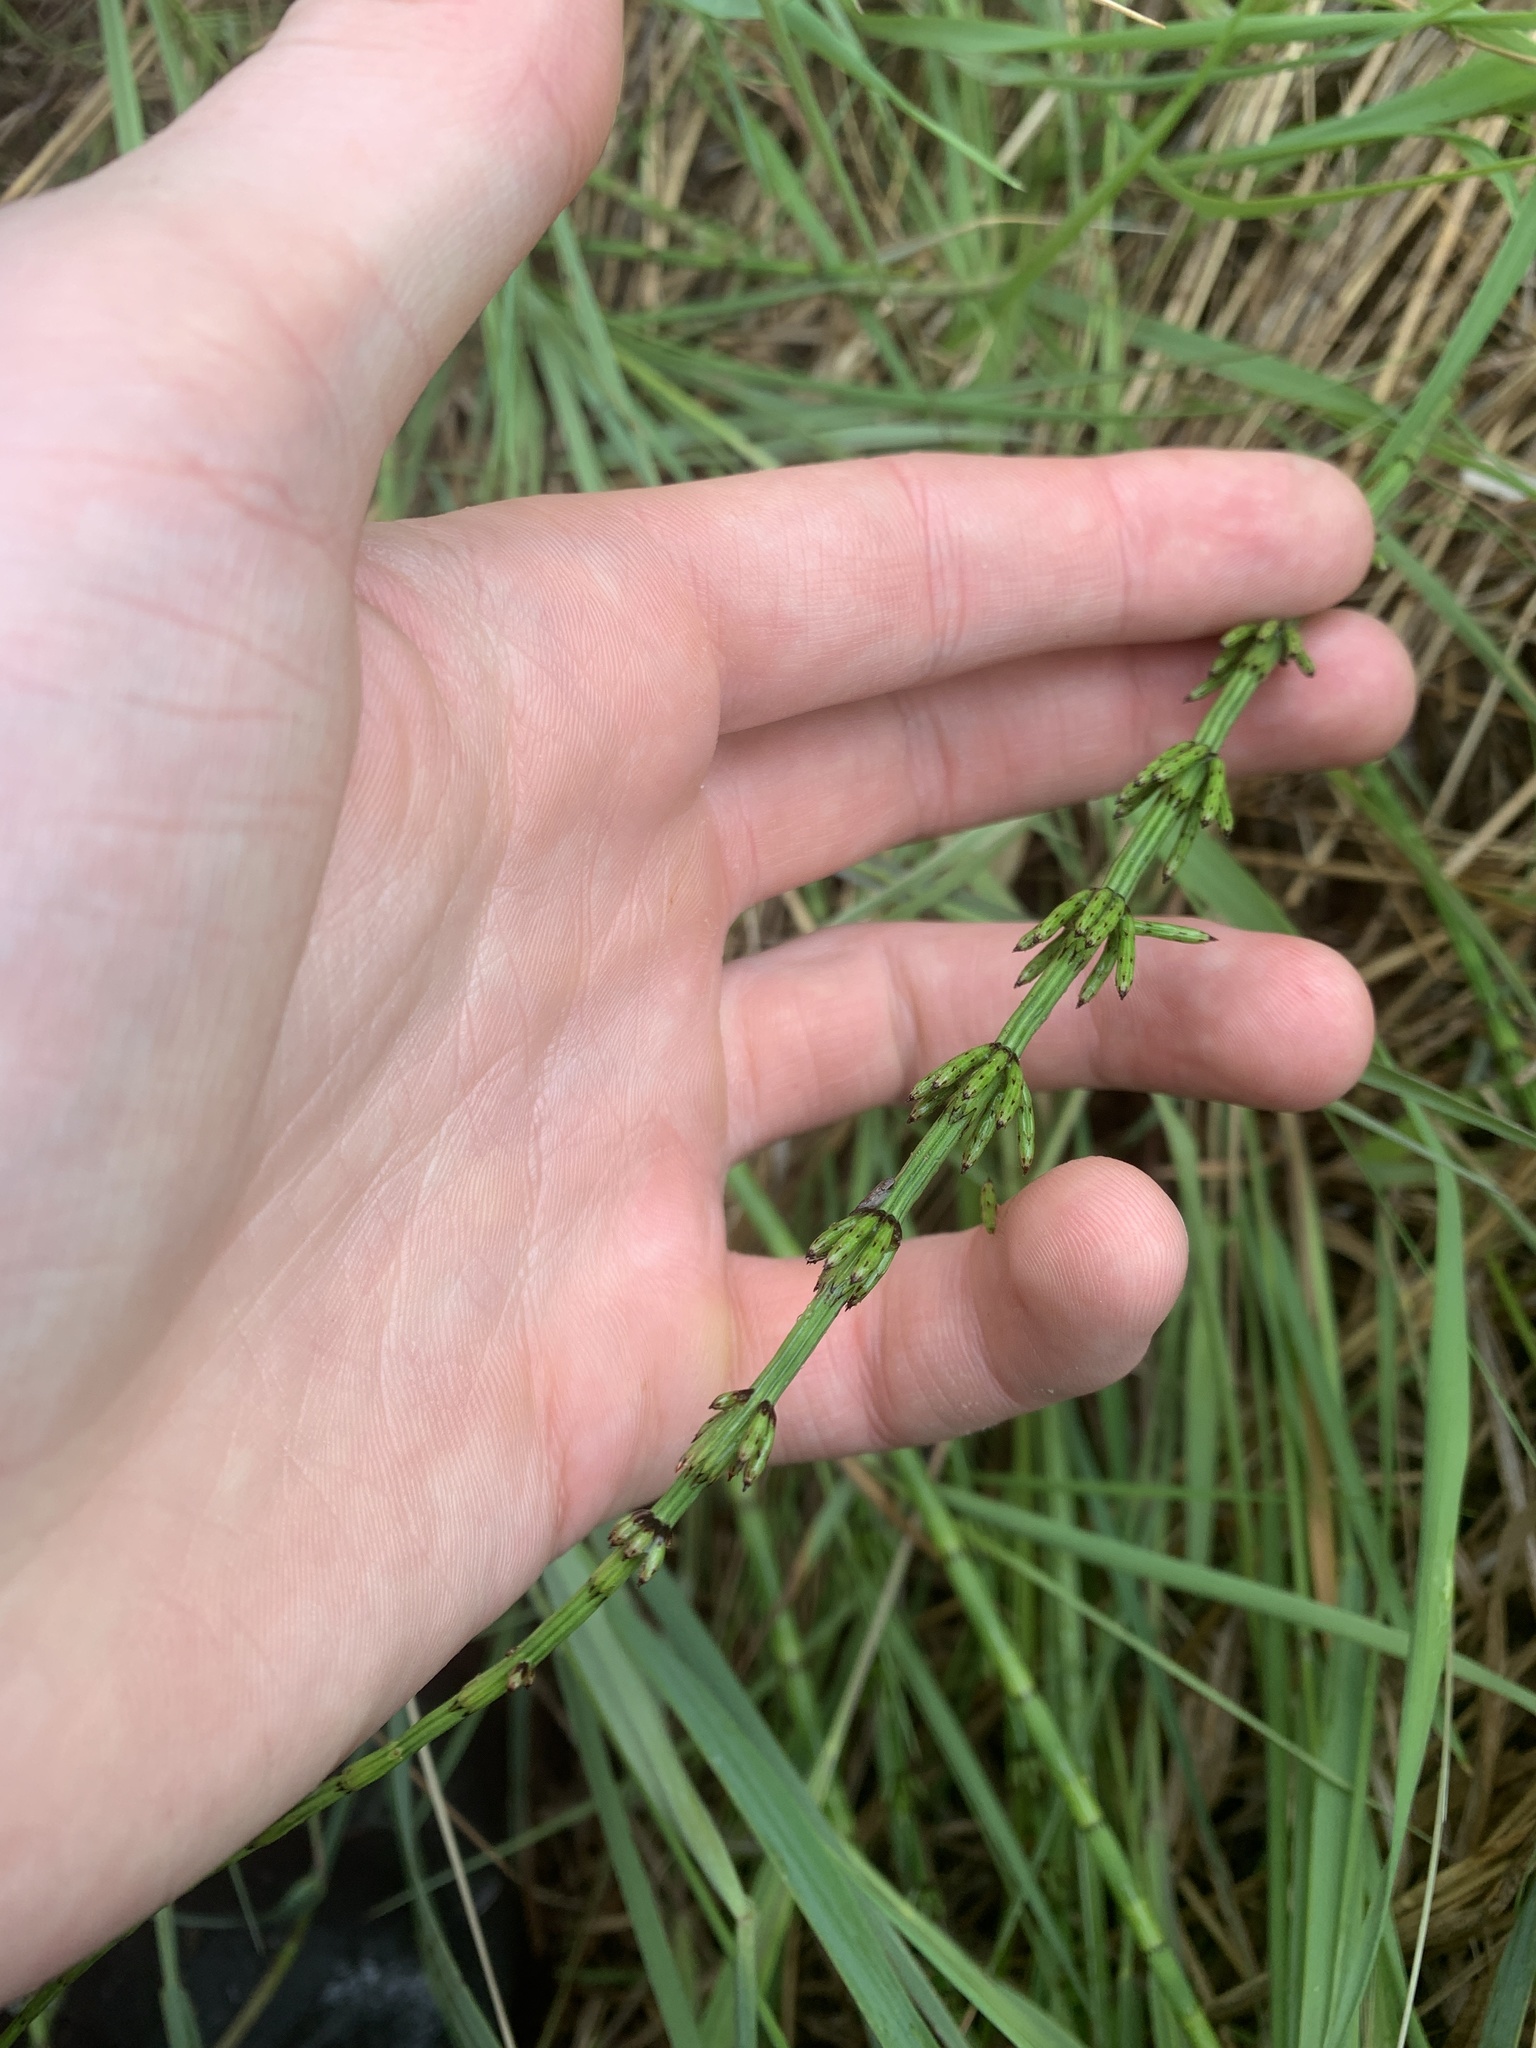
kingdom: Plantae
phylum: Tracheophyta
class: Polypodiopsida
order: Equisetales
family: Equisetaceae
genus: Equisetum
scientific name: Equisetum palustre
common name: Marsh horsetail
